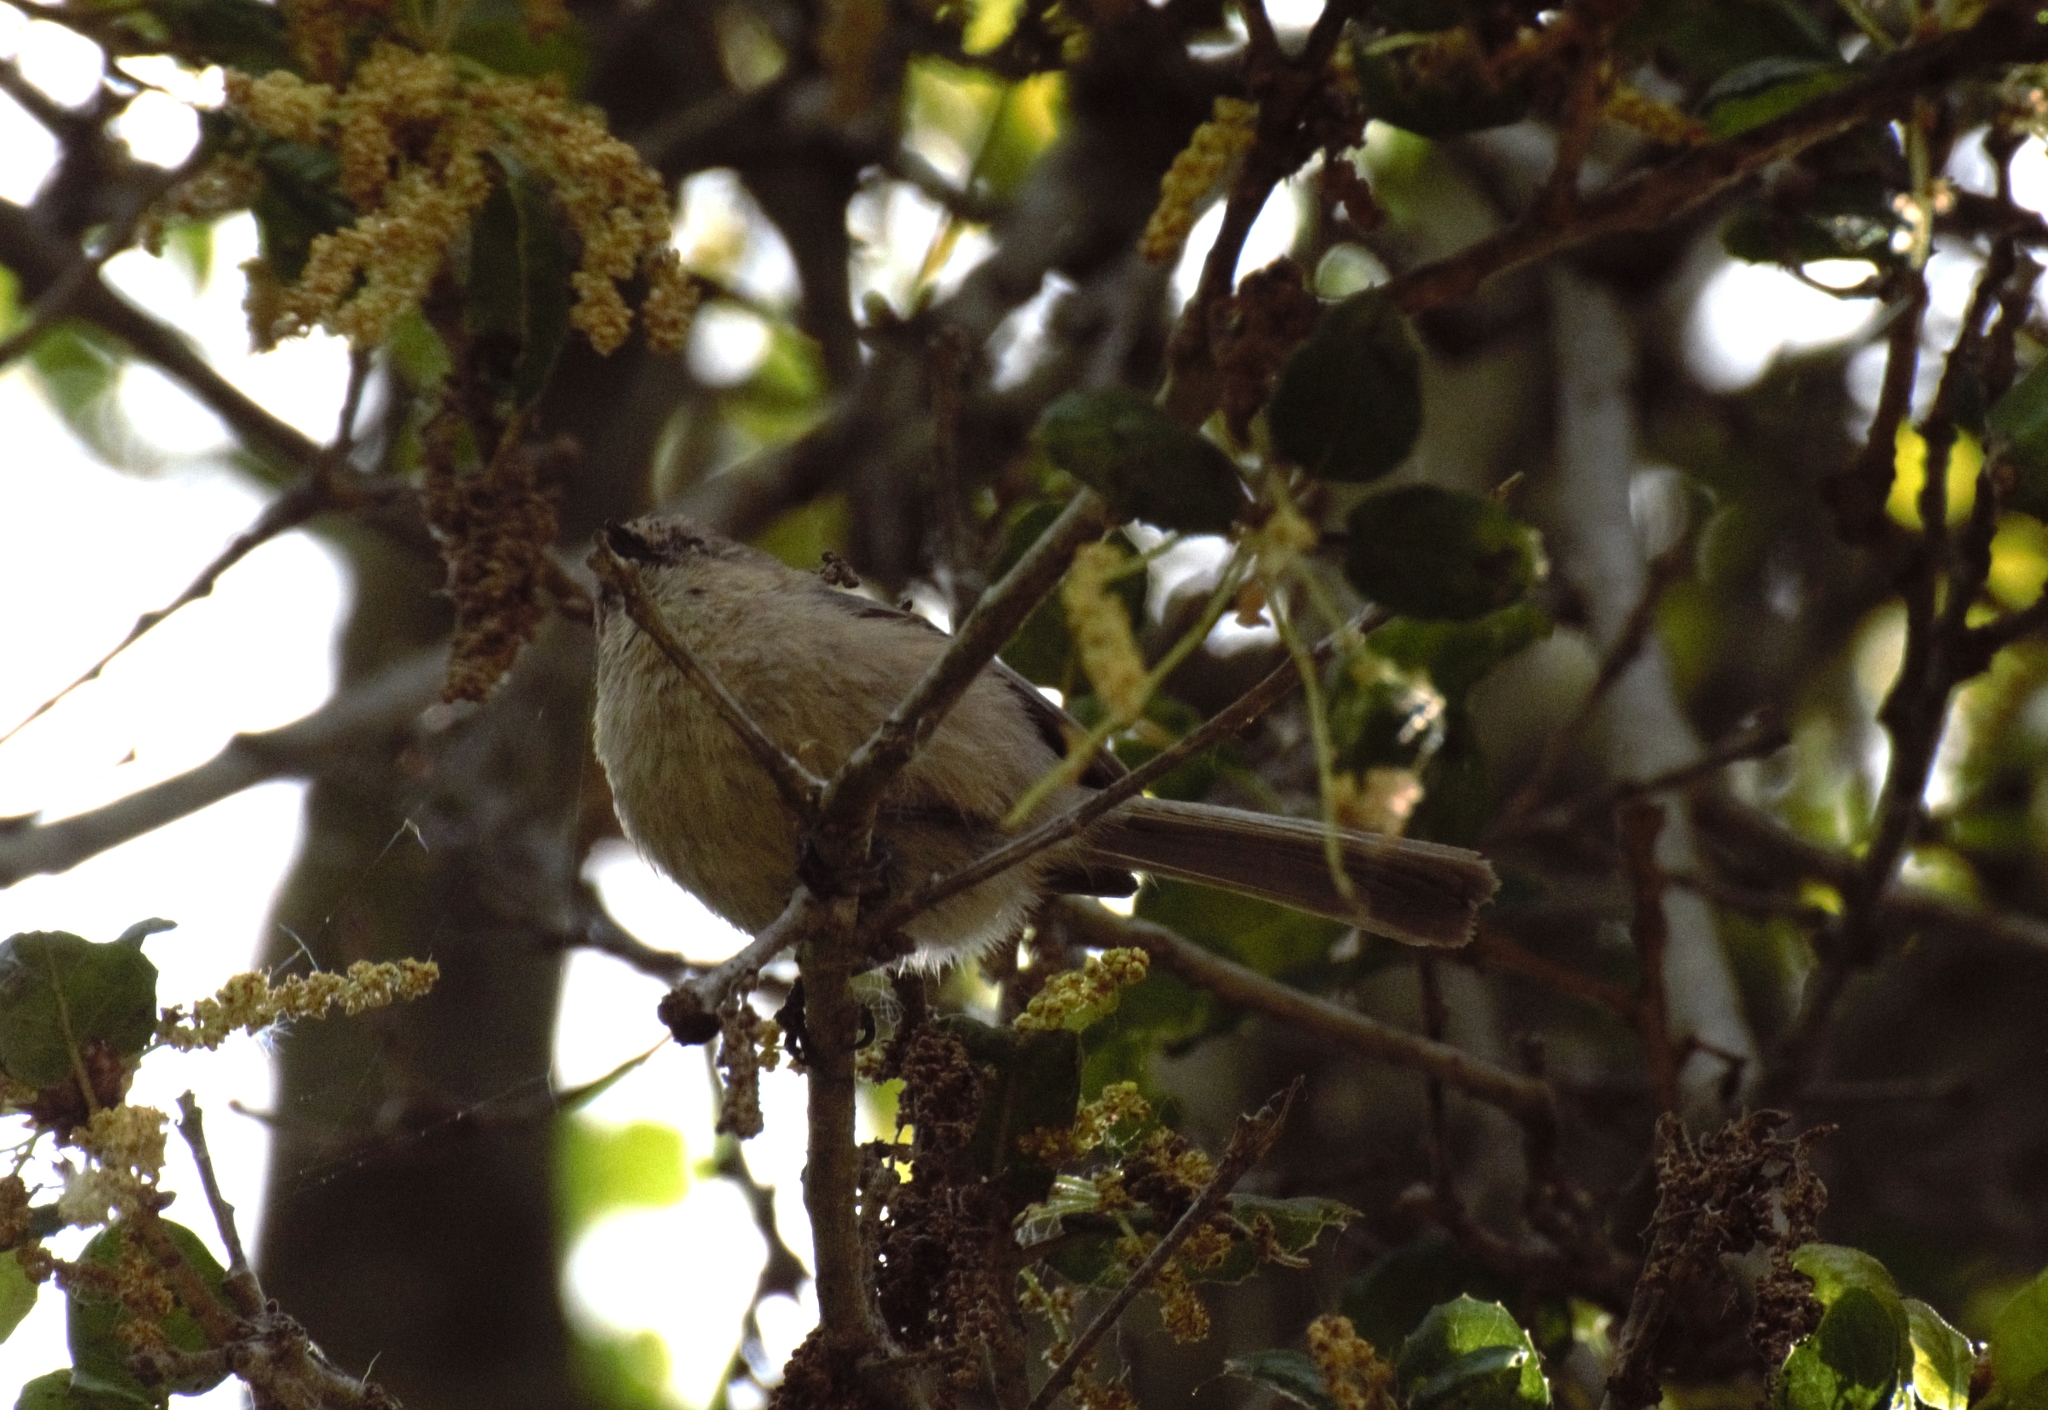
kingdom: Animalia
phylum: Chordata
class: Aves
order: Passeriformes
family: Aegithalidae
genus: Psaltriparus
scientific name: Psaltriparus minimus
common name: American bushtit
